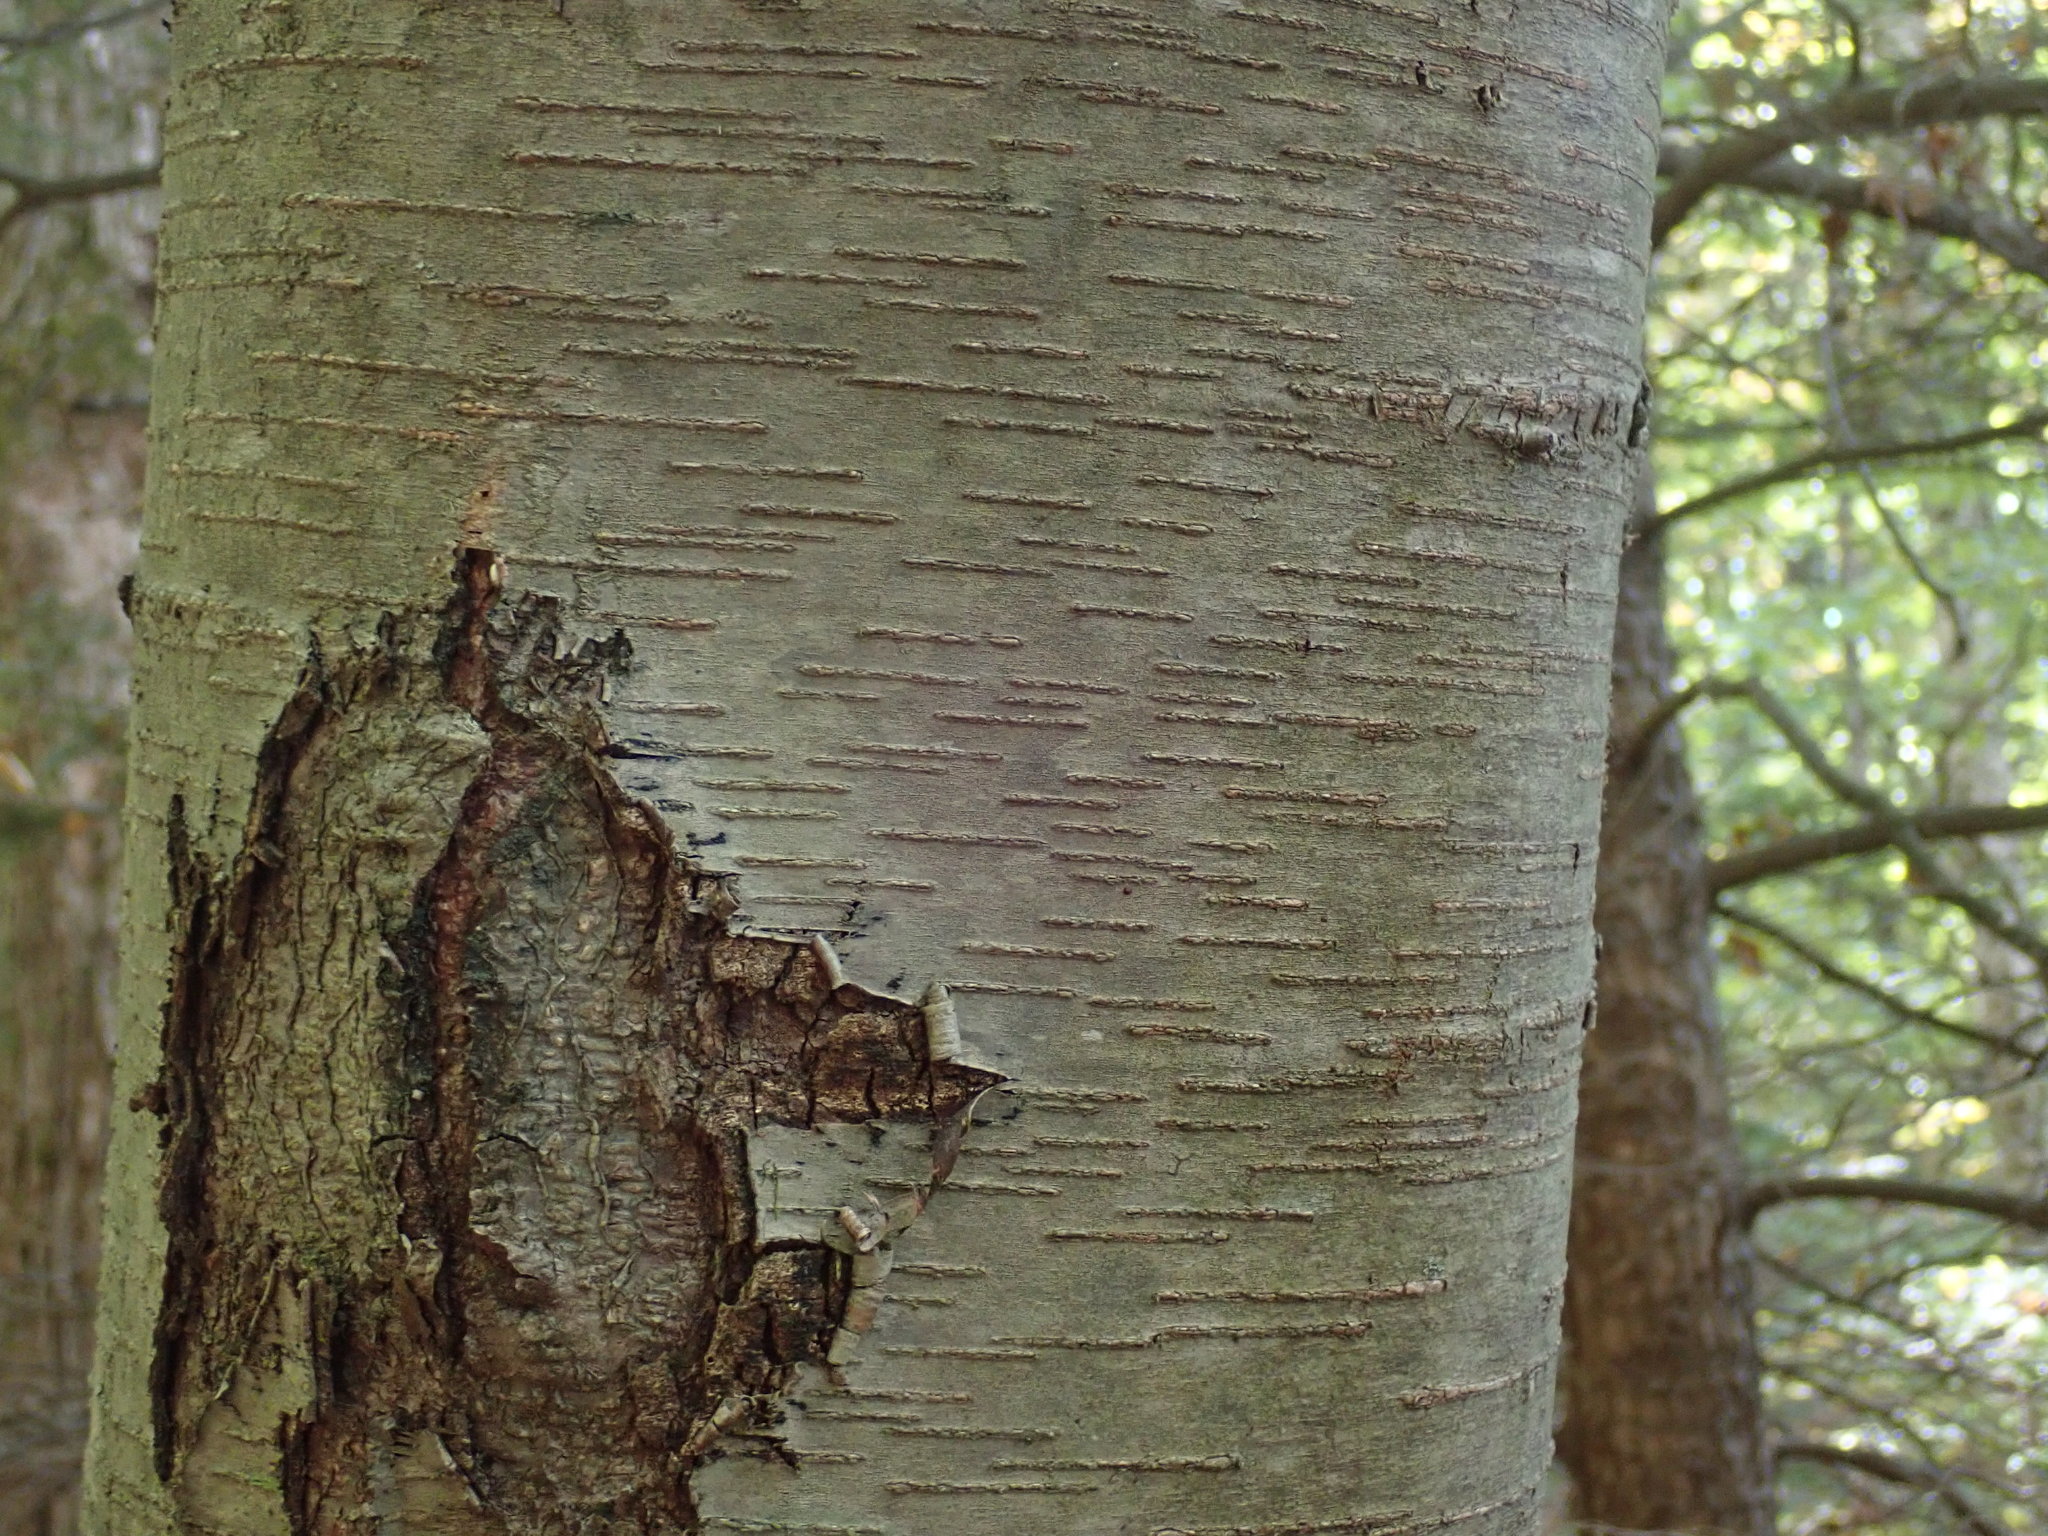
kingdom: Plantae
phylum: Tracheophyta
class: Magnoliopsida
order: Fagales
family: Betulaceae
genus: Betula
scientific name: Betula lenta
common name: Black birch
